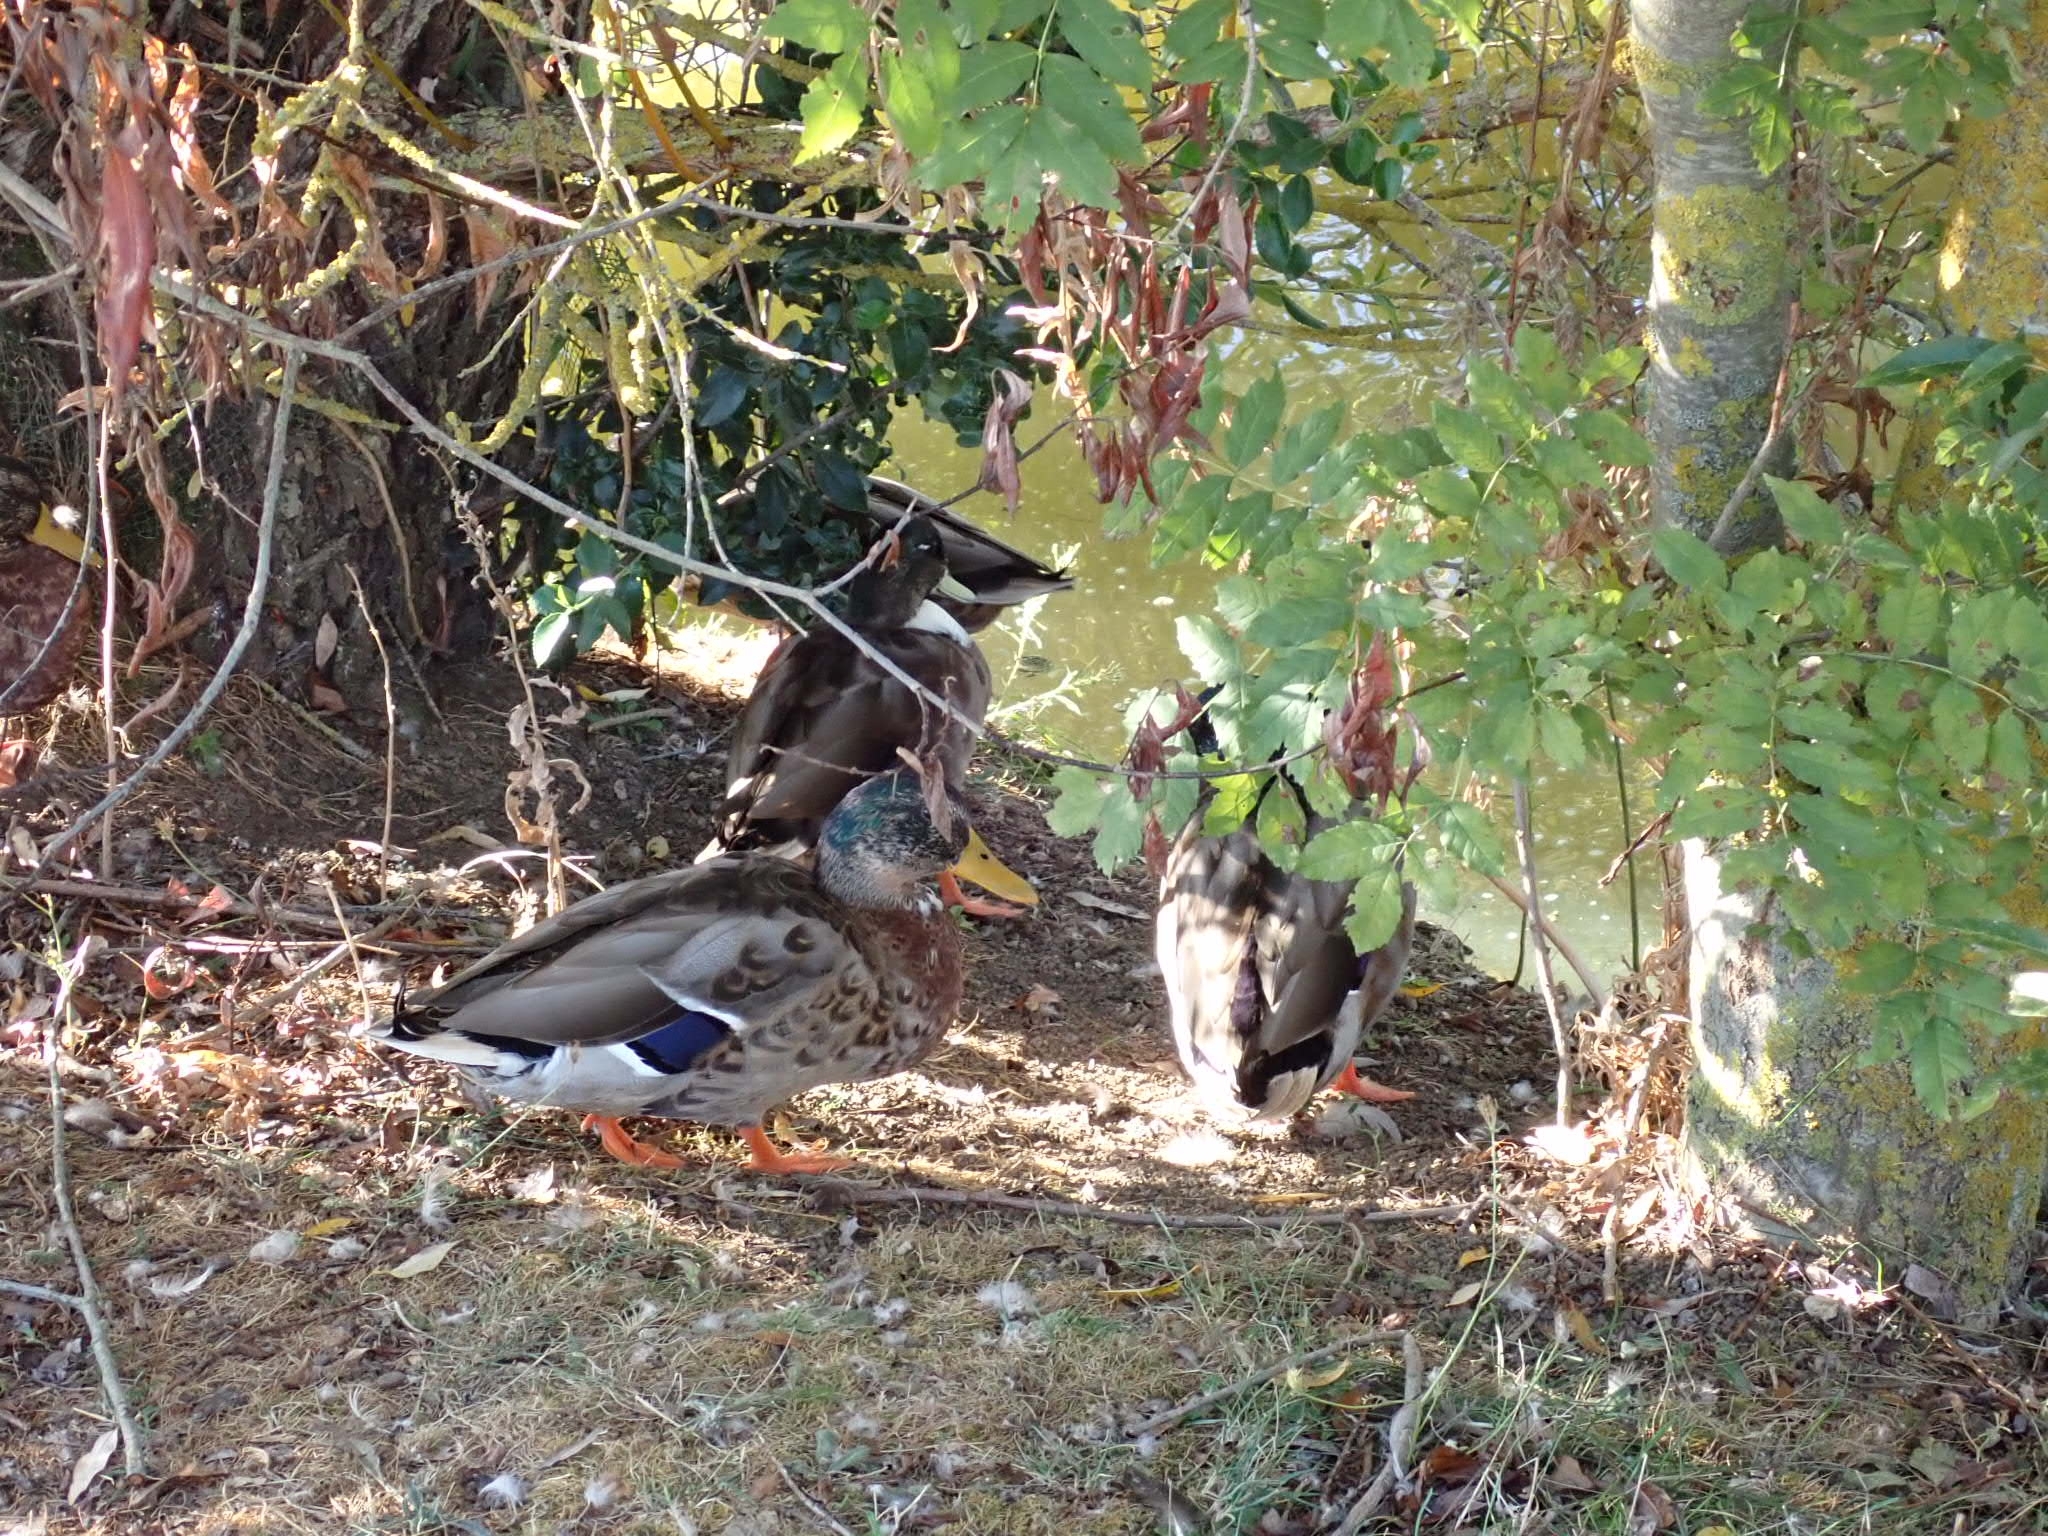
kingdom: Animalia
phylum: Chordata
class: Aves
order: Anseriformes
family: Anatidae
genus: Anas
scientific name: Anas platyrhynchos
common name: Mallard
